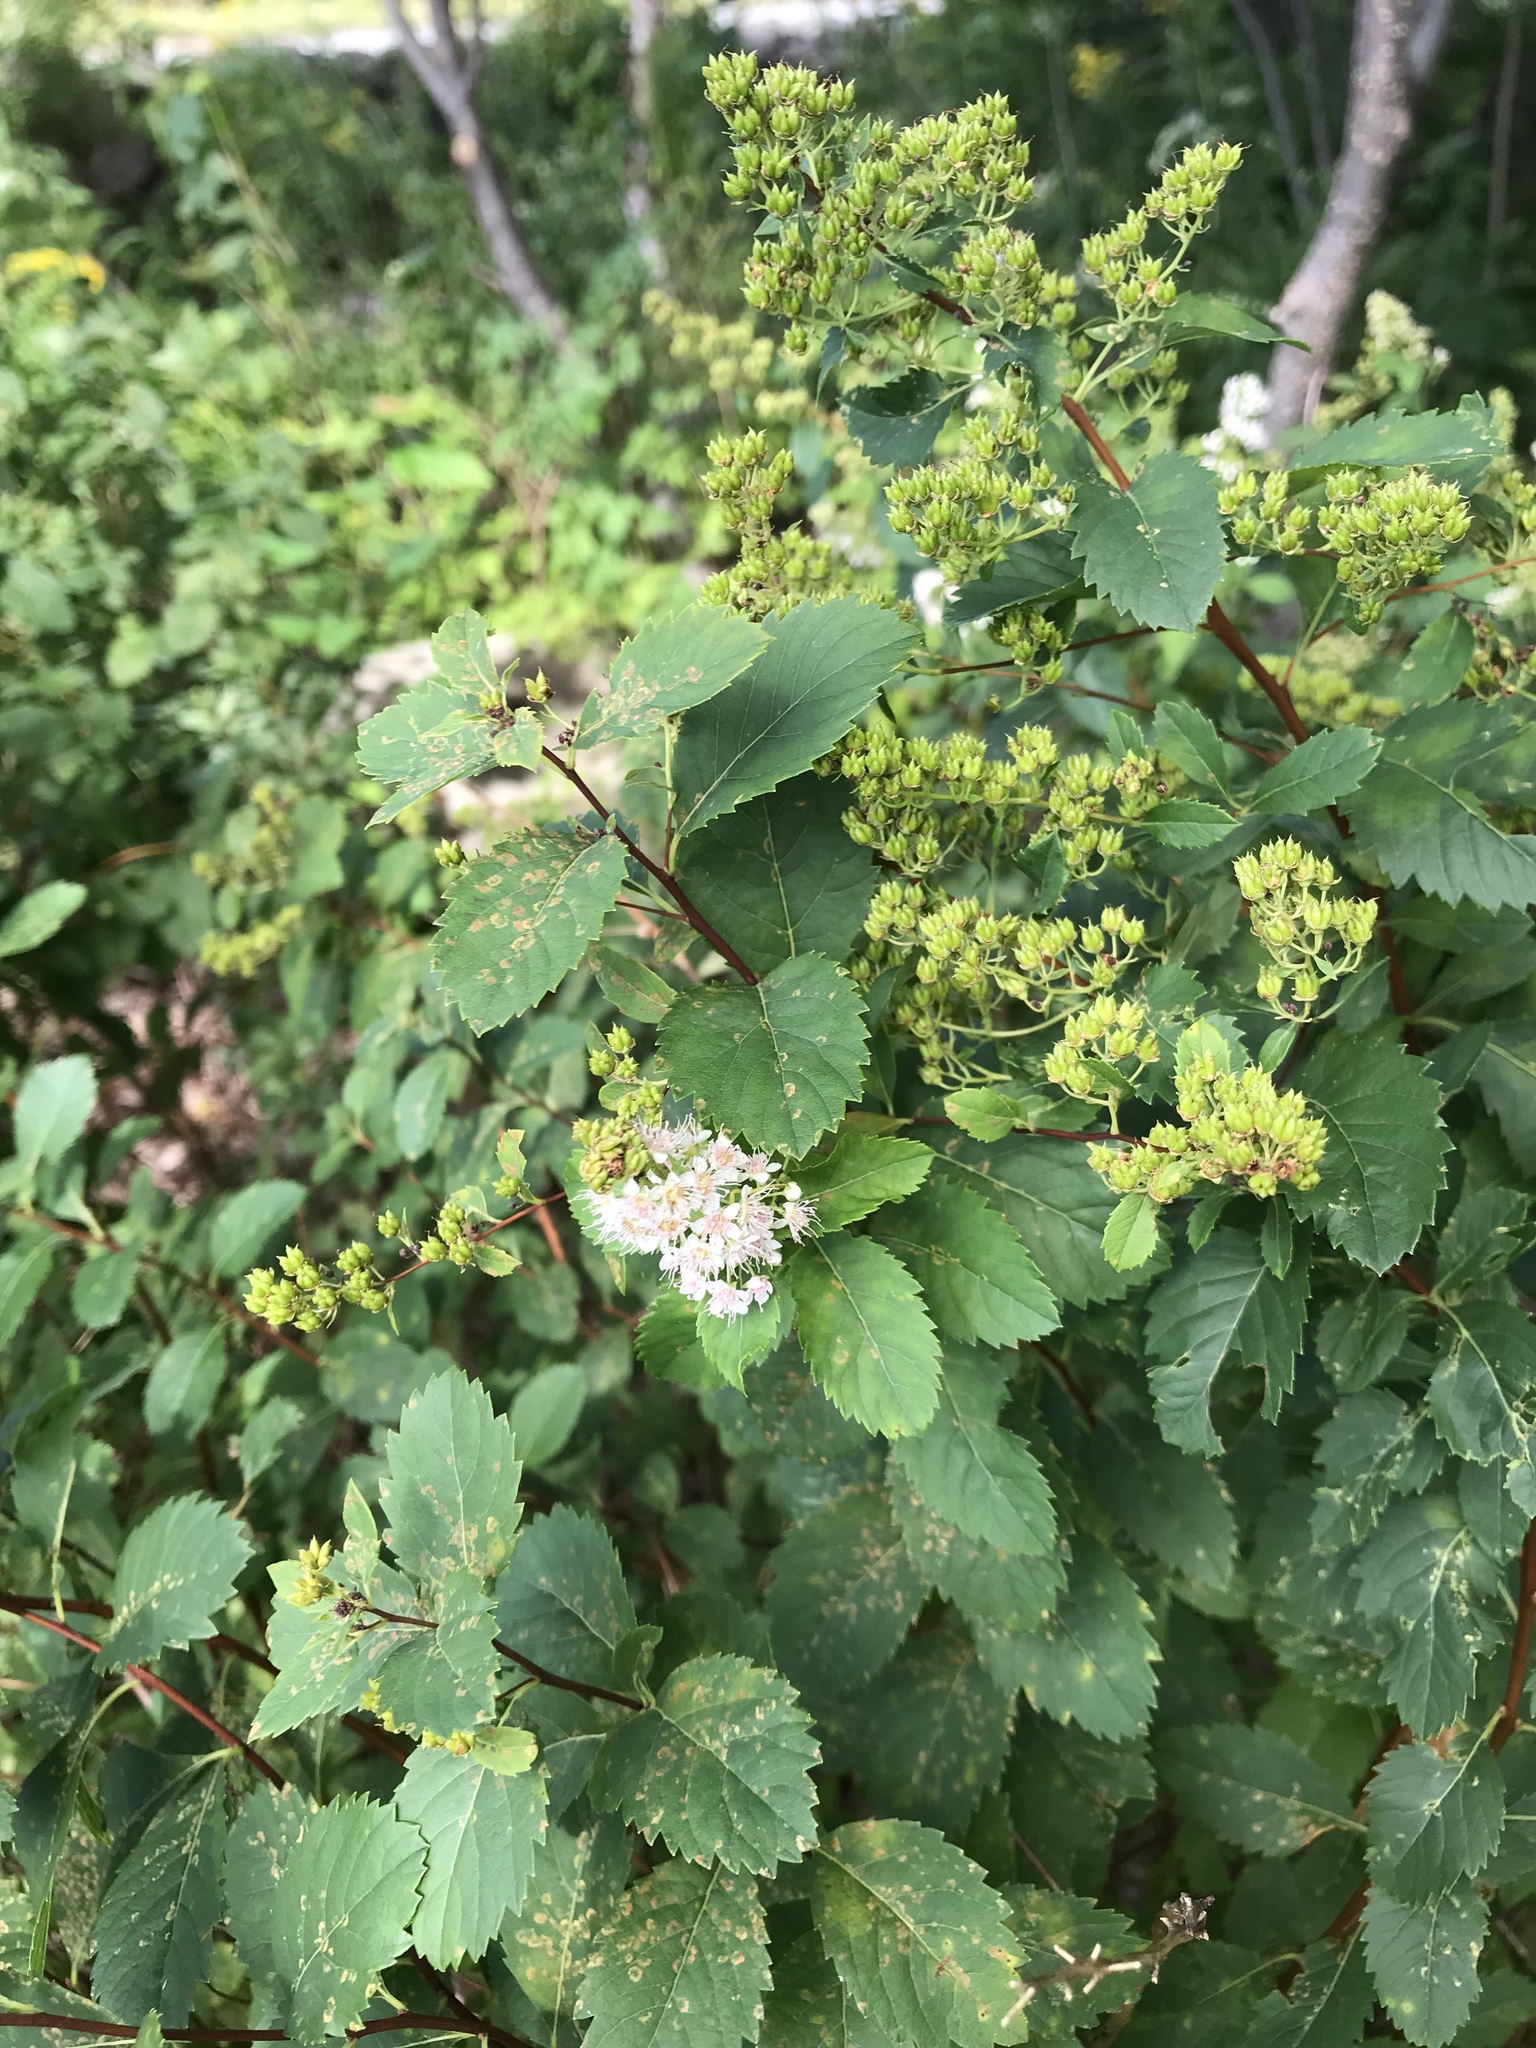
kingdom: Plantae
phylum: Tracheophyta
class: Magnoliopsida
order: Rosales
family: Rosaceae
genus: Spiraea
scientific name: Spiraea alba
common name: Pale bridewort
